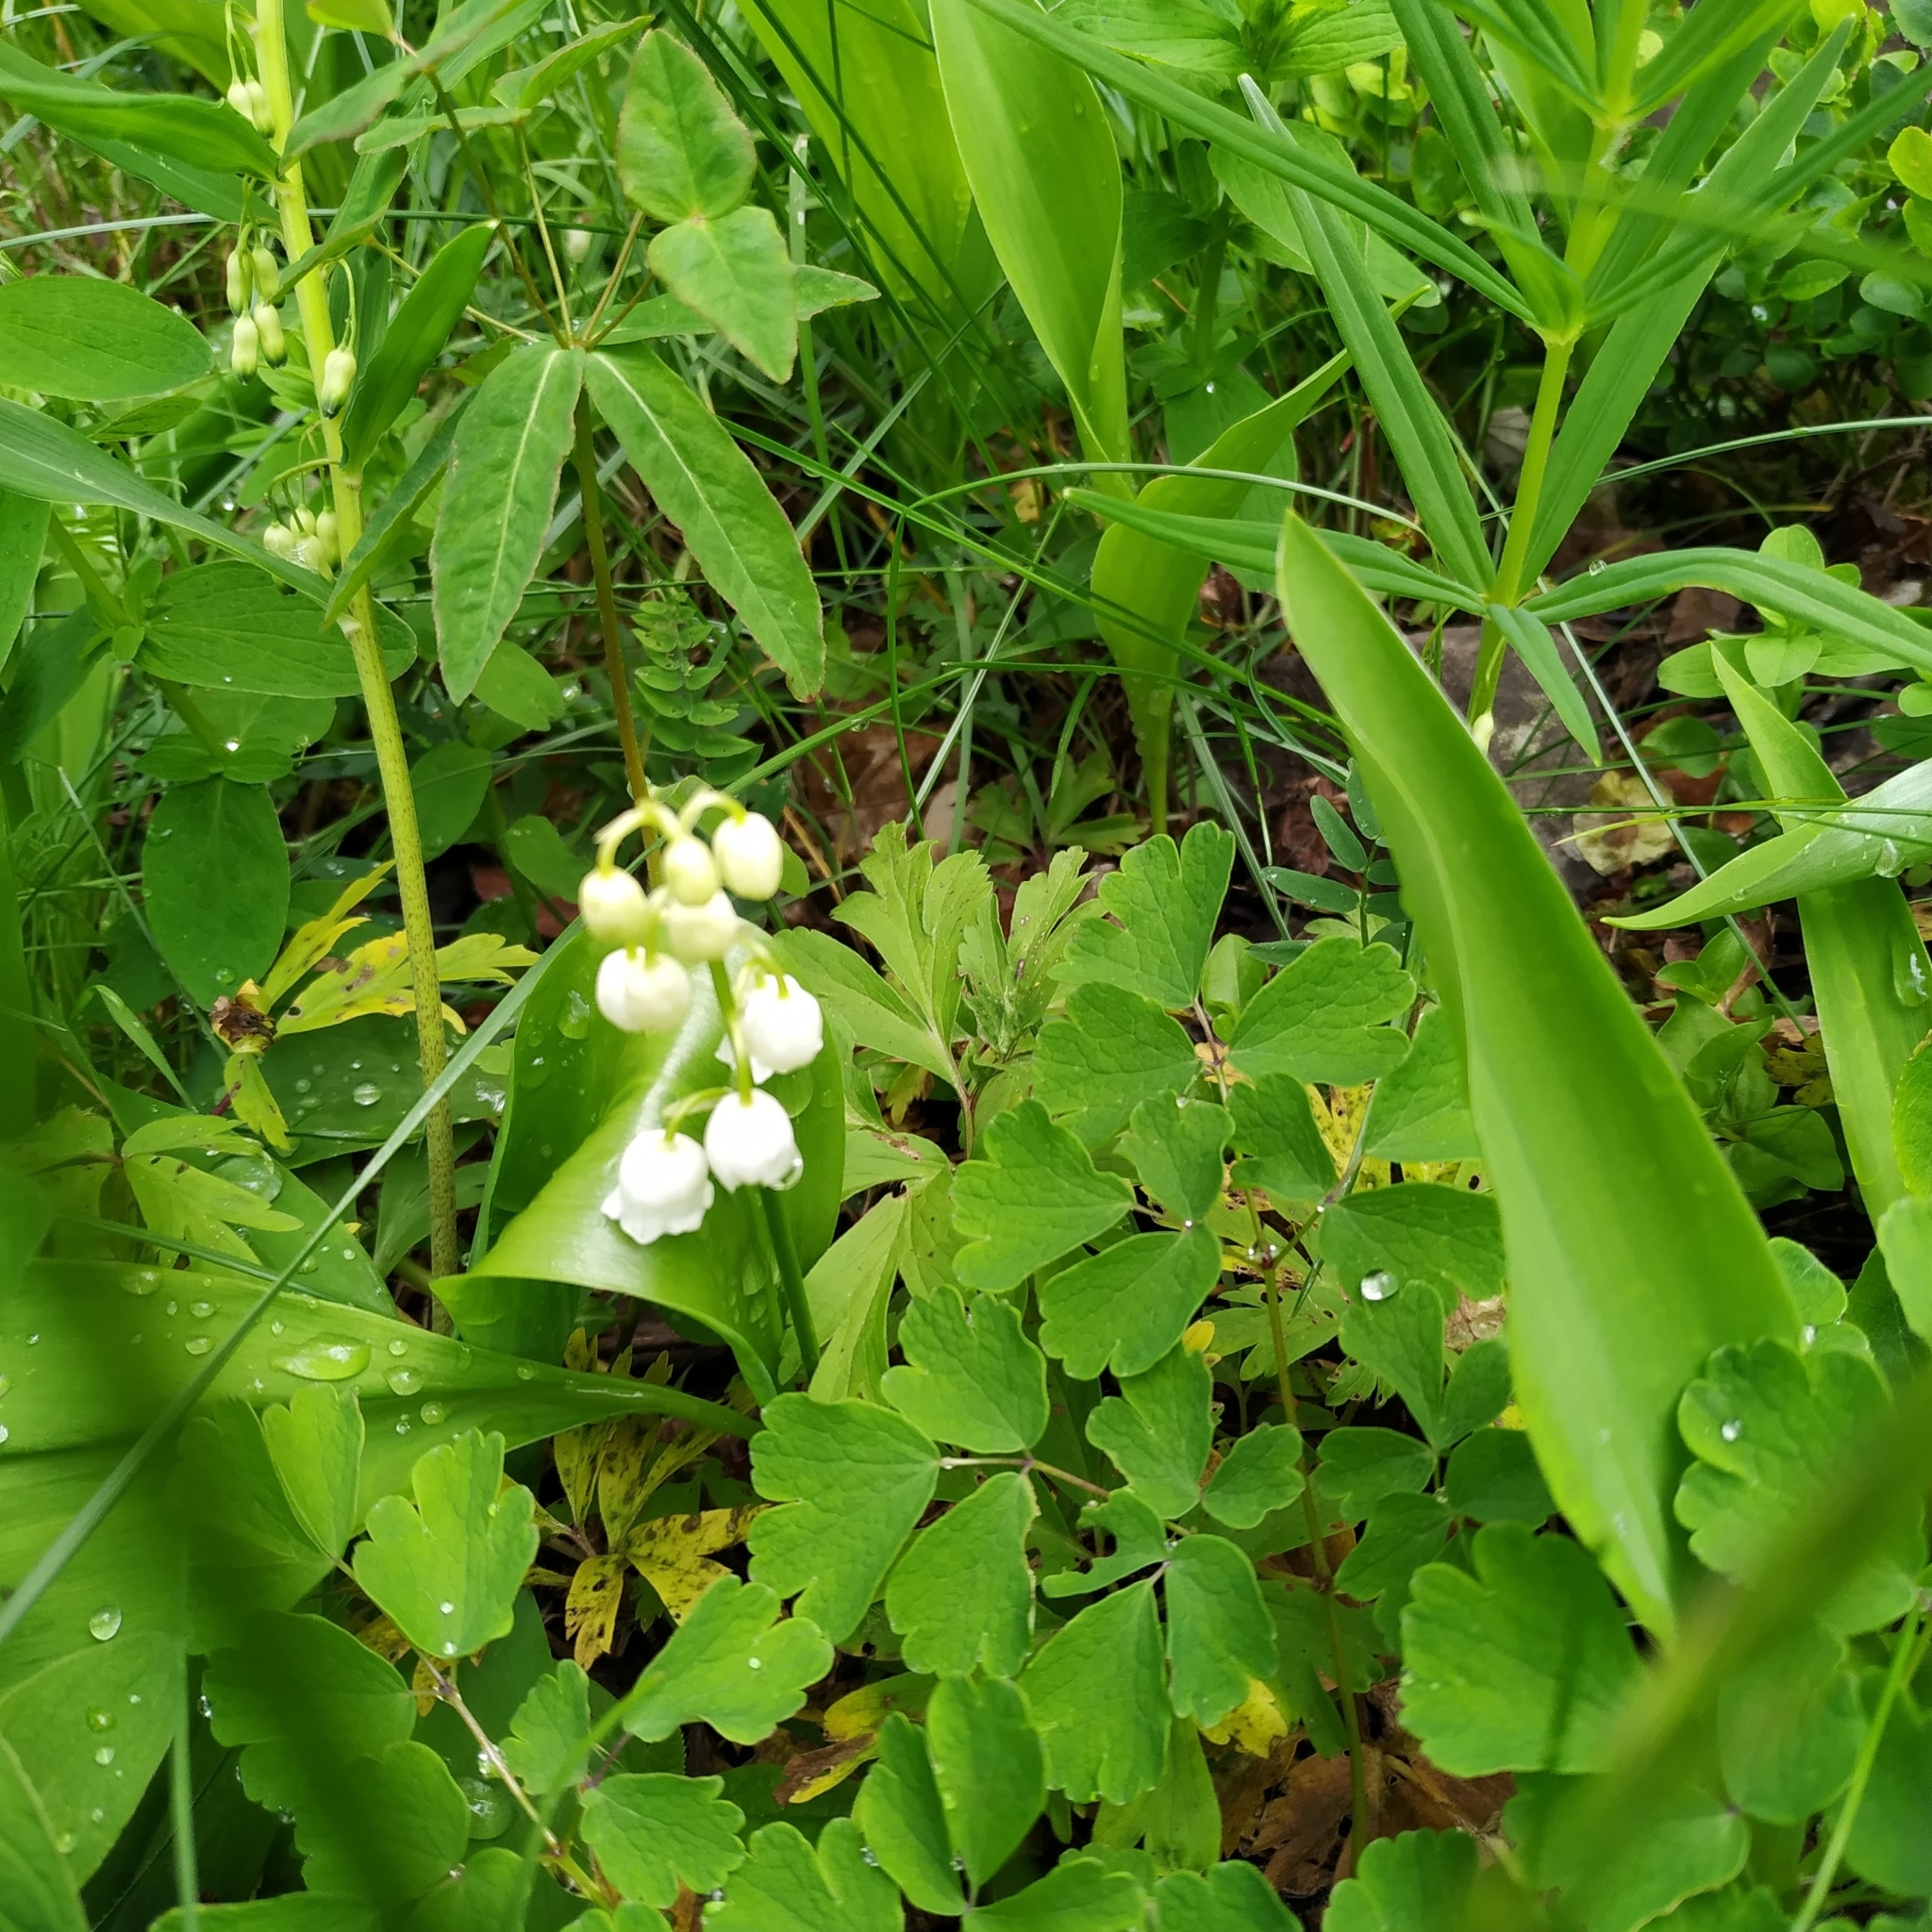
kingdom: Plantae
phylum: Tracheophyta
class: Liliopsida
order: Asparagales
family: Asparagaceae
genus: Convallaria
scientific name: Convallaria majalis
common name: Lily-of-the-valley
